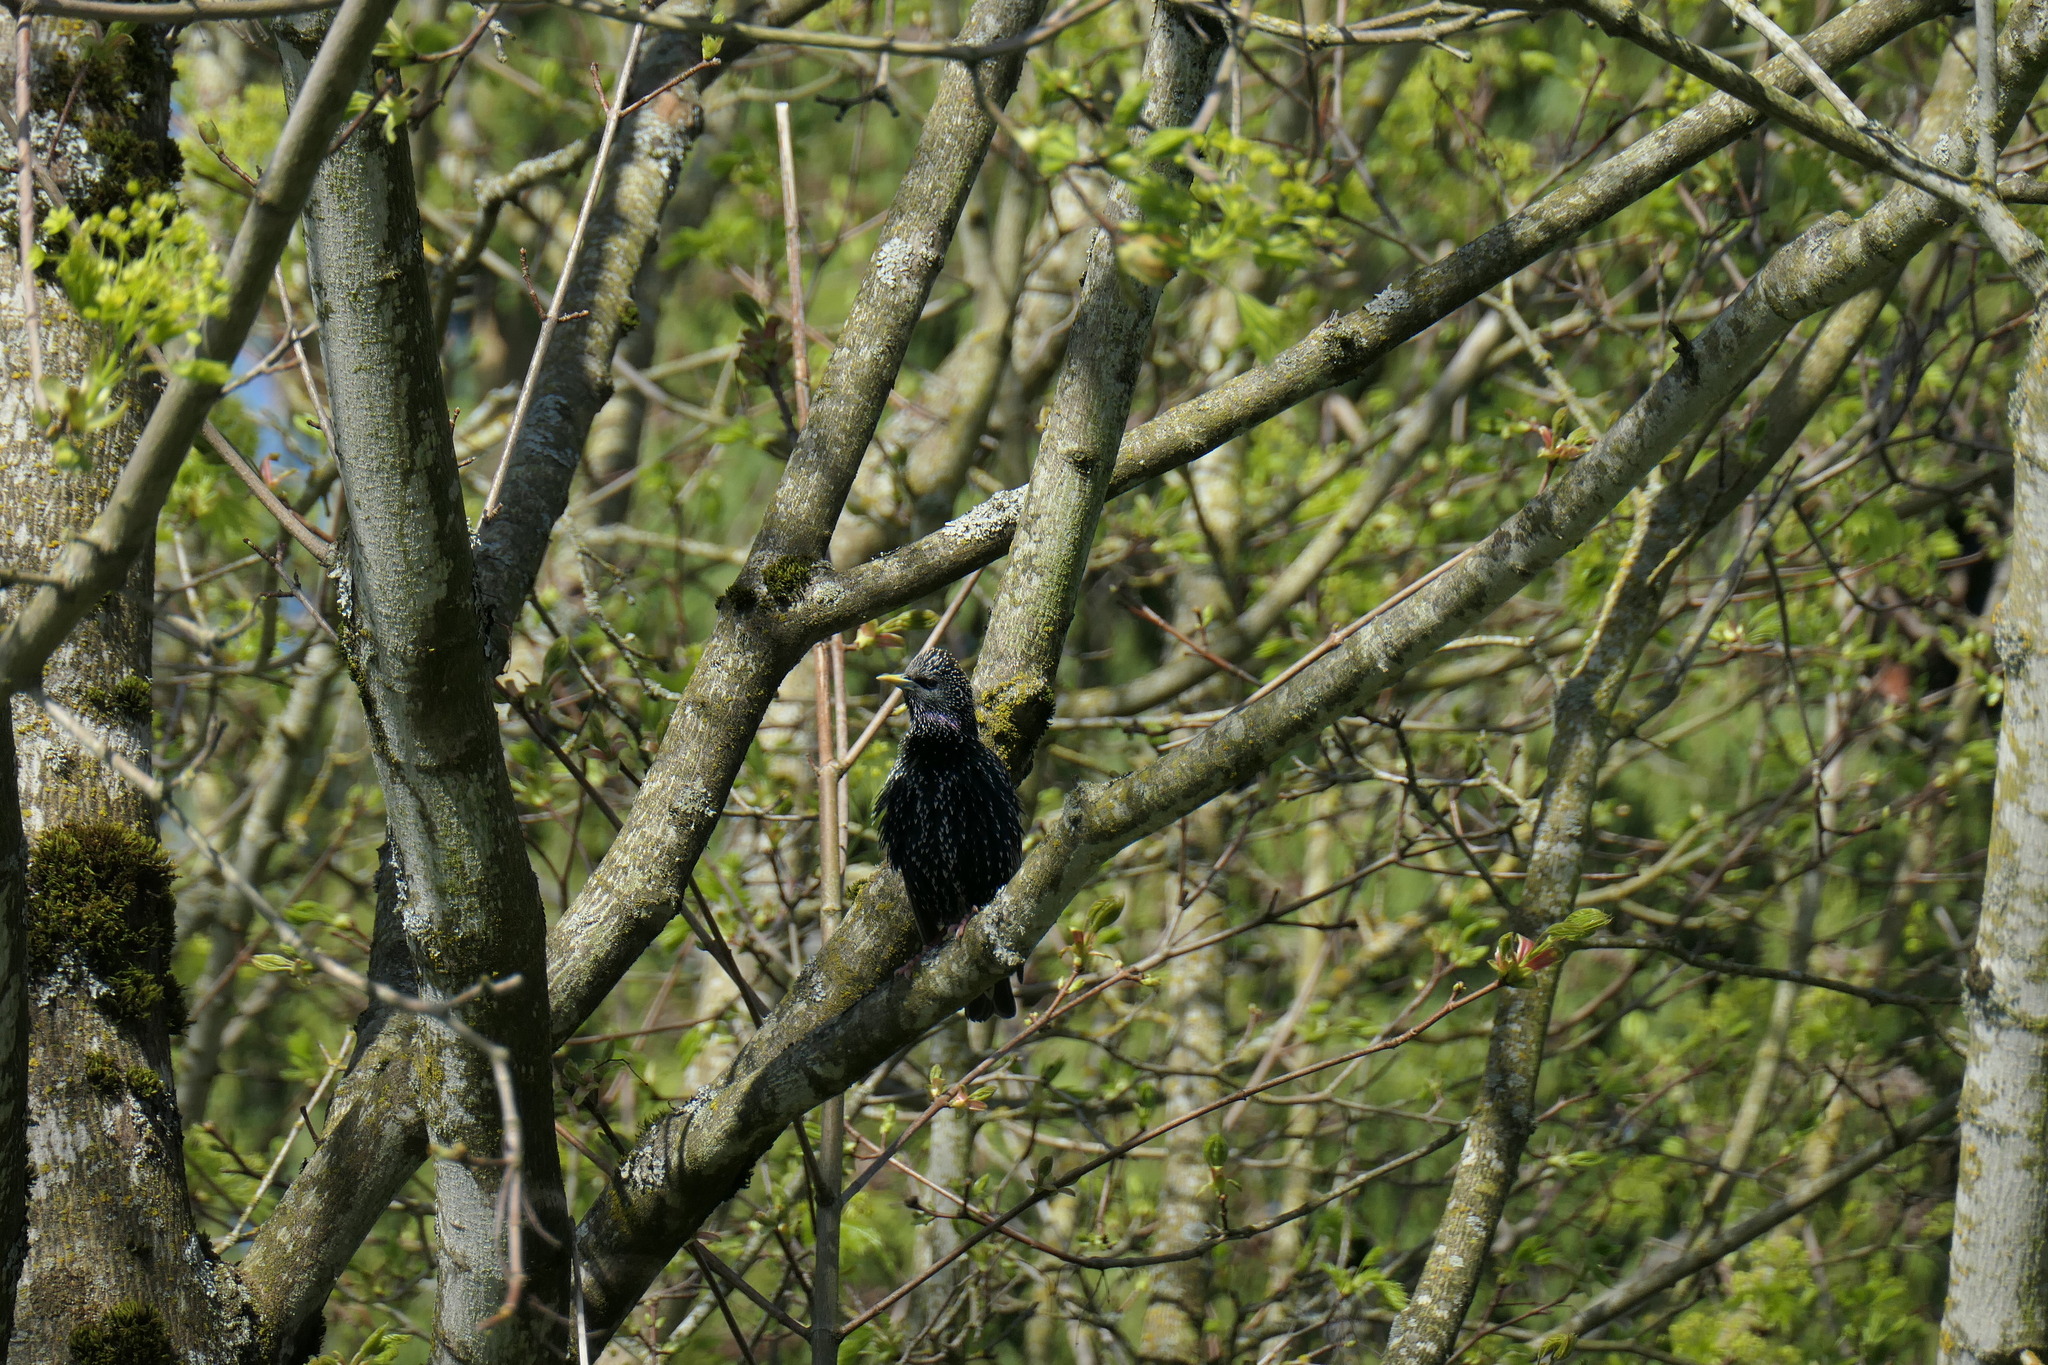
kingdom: Animalia
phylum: Chordata
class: Aves
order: Passeriformes
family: Sturnidae
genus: Sturnus
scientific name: Sturnus vulgaris
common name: Common starling
